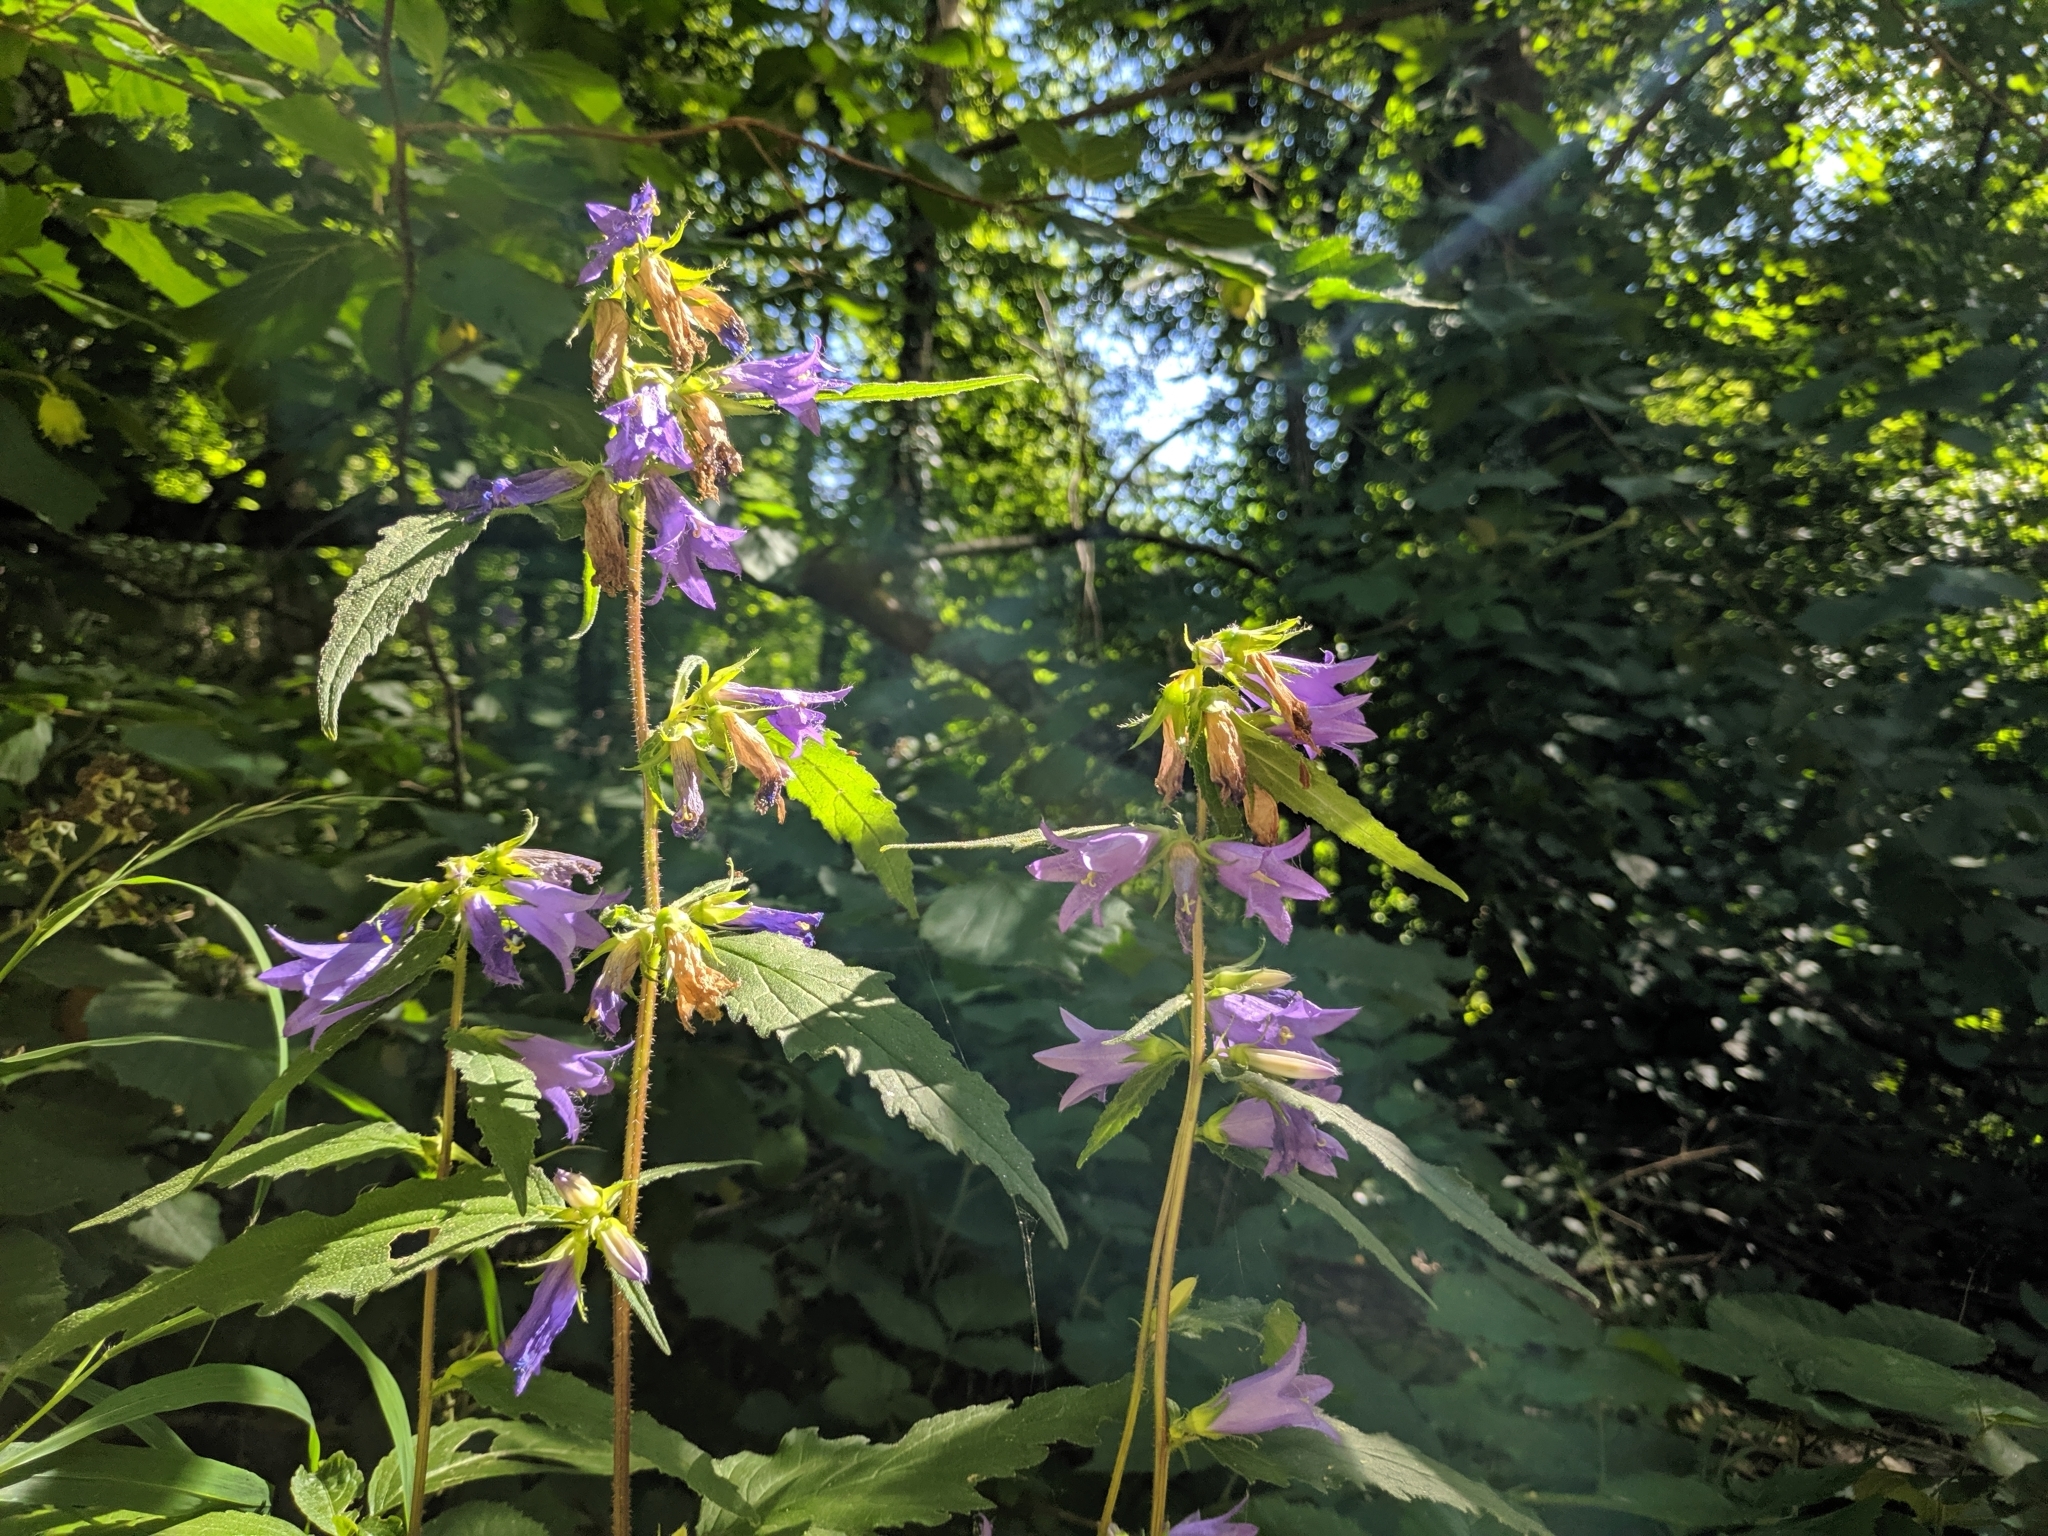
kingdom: Plantae
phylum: Tracheophyta
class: Magnoliopsida
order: Asterales
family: Campanulaceae
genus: Campanula
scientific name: Campanula trachelium
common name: Nettle-leaved bellflower
